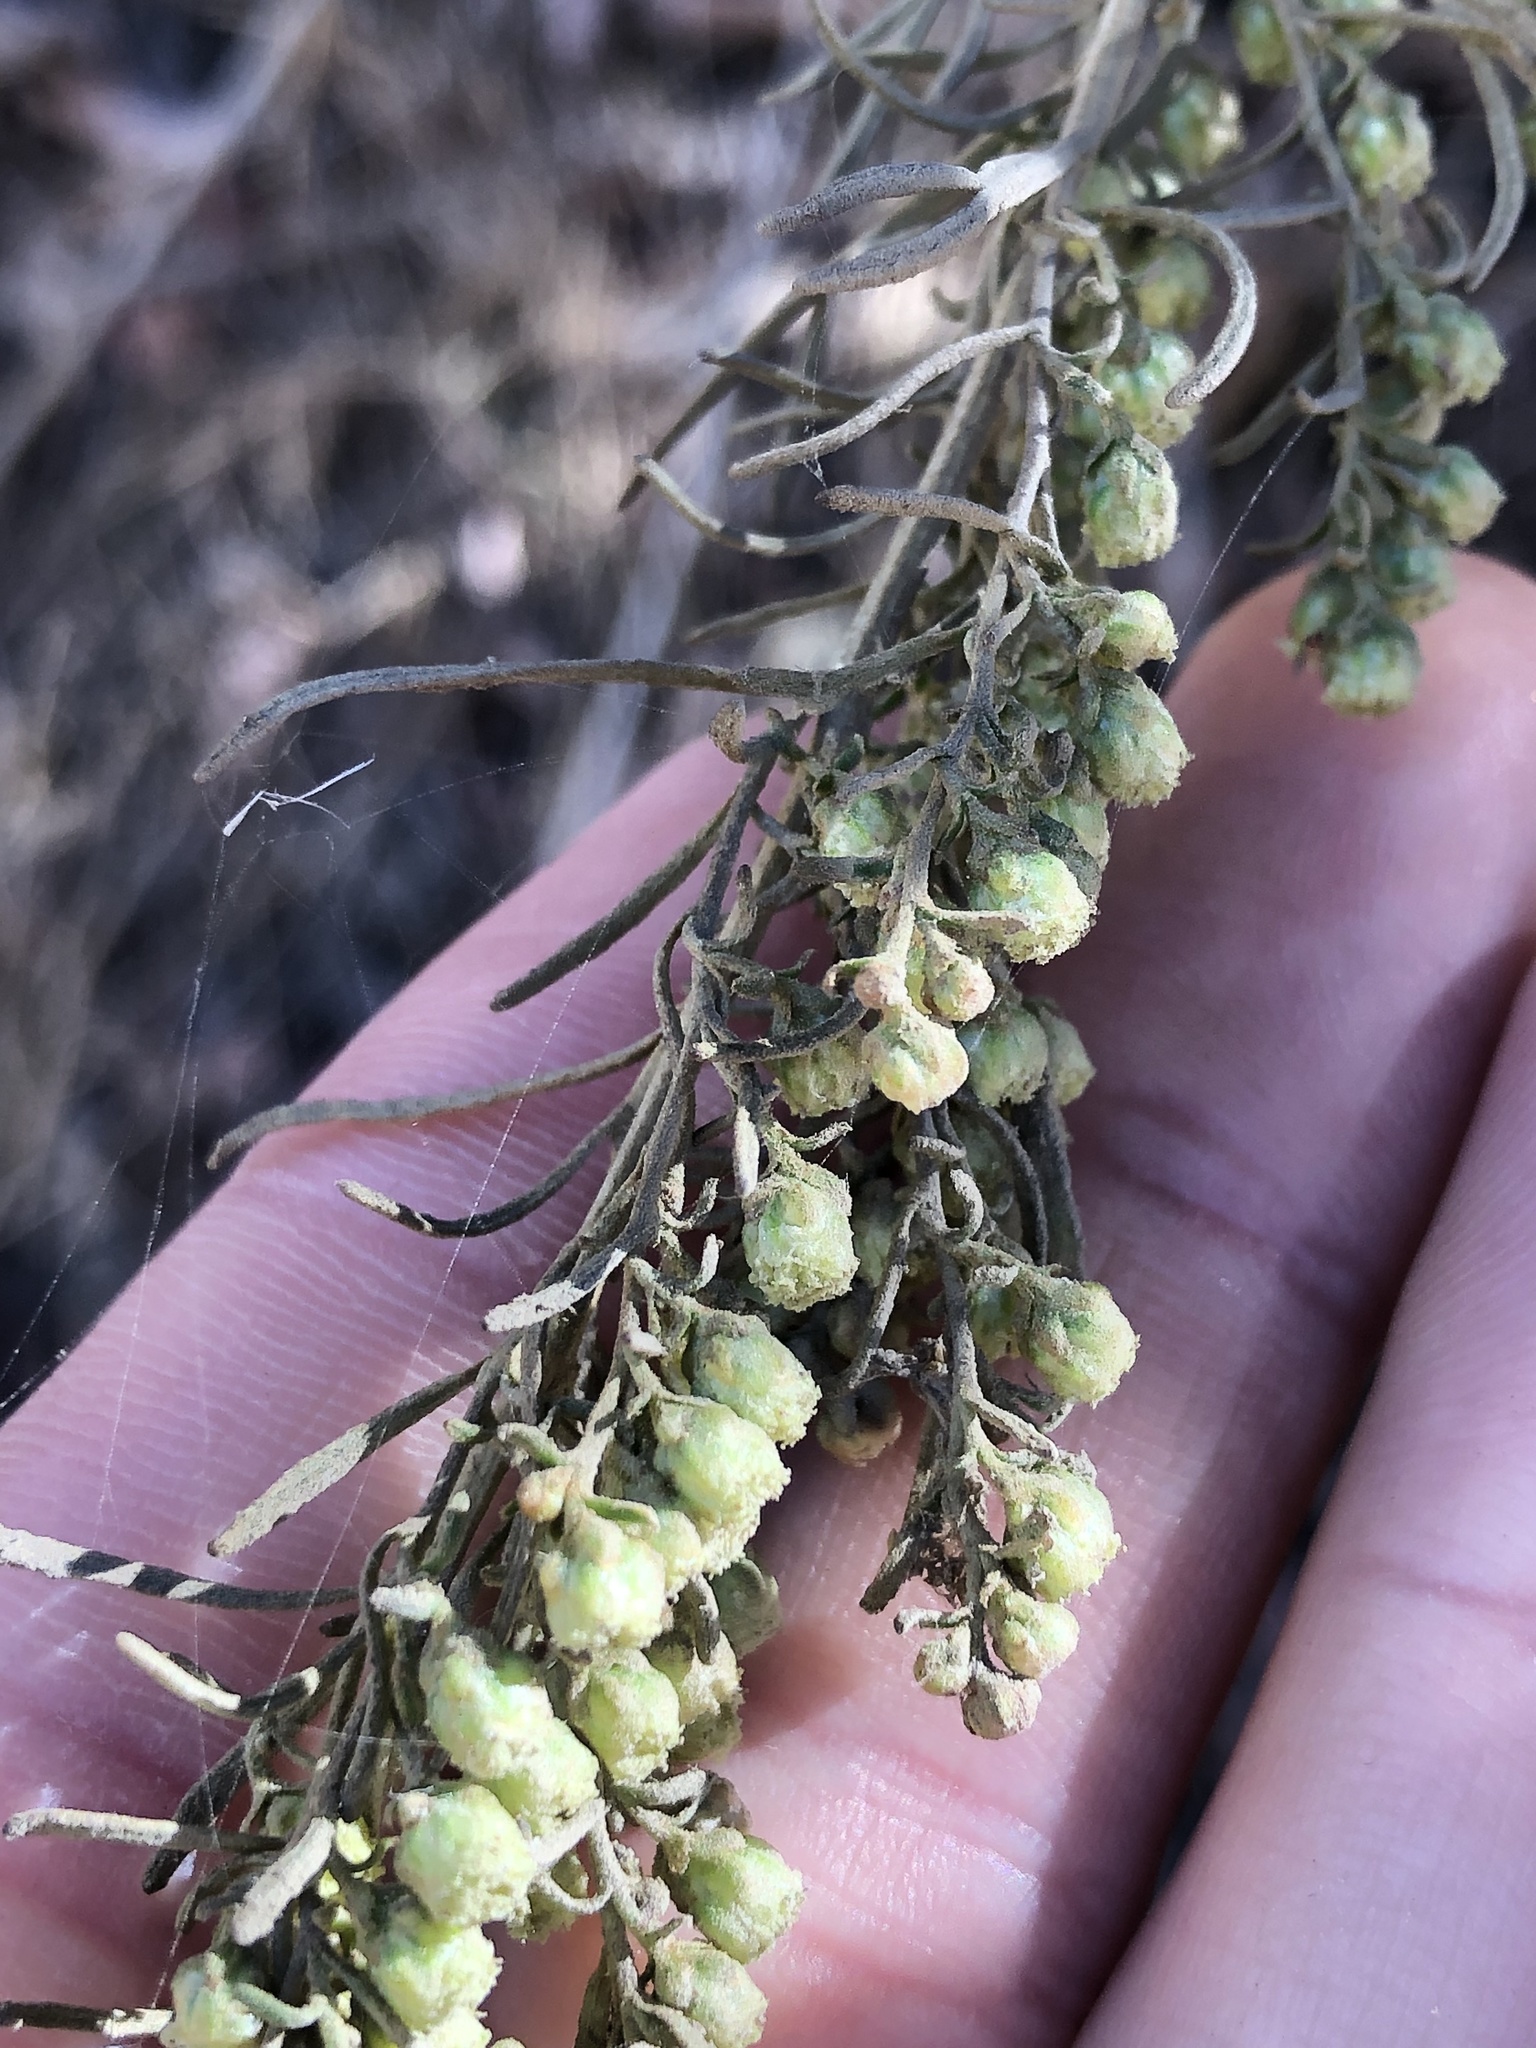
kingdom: Plantae
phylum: Tracheophyta
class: Magnoliopsida
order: Asterales
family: Asteraceae
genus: Artemisia
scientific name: Artemisia californica
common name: California sagebrush
